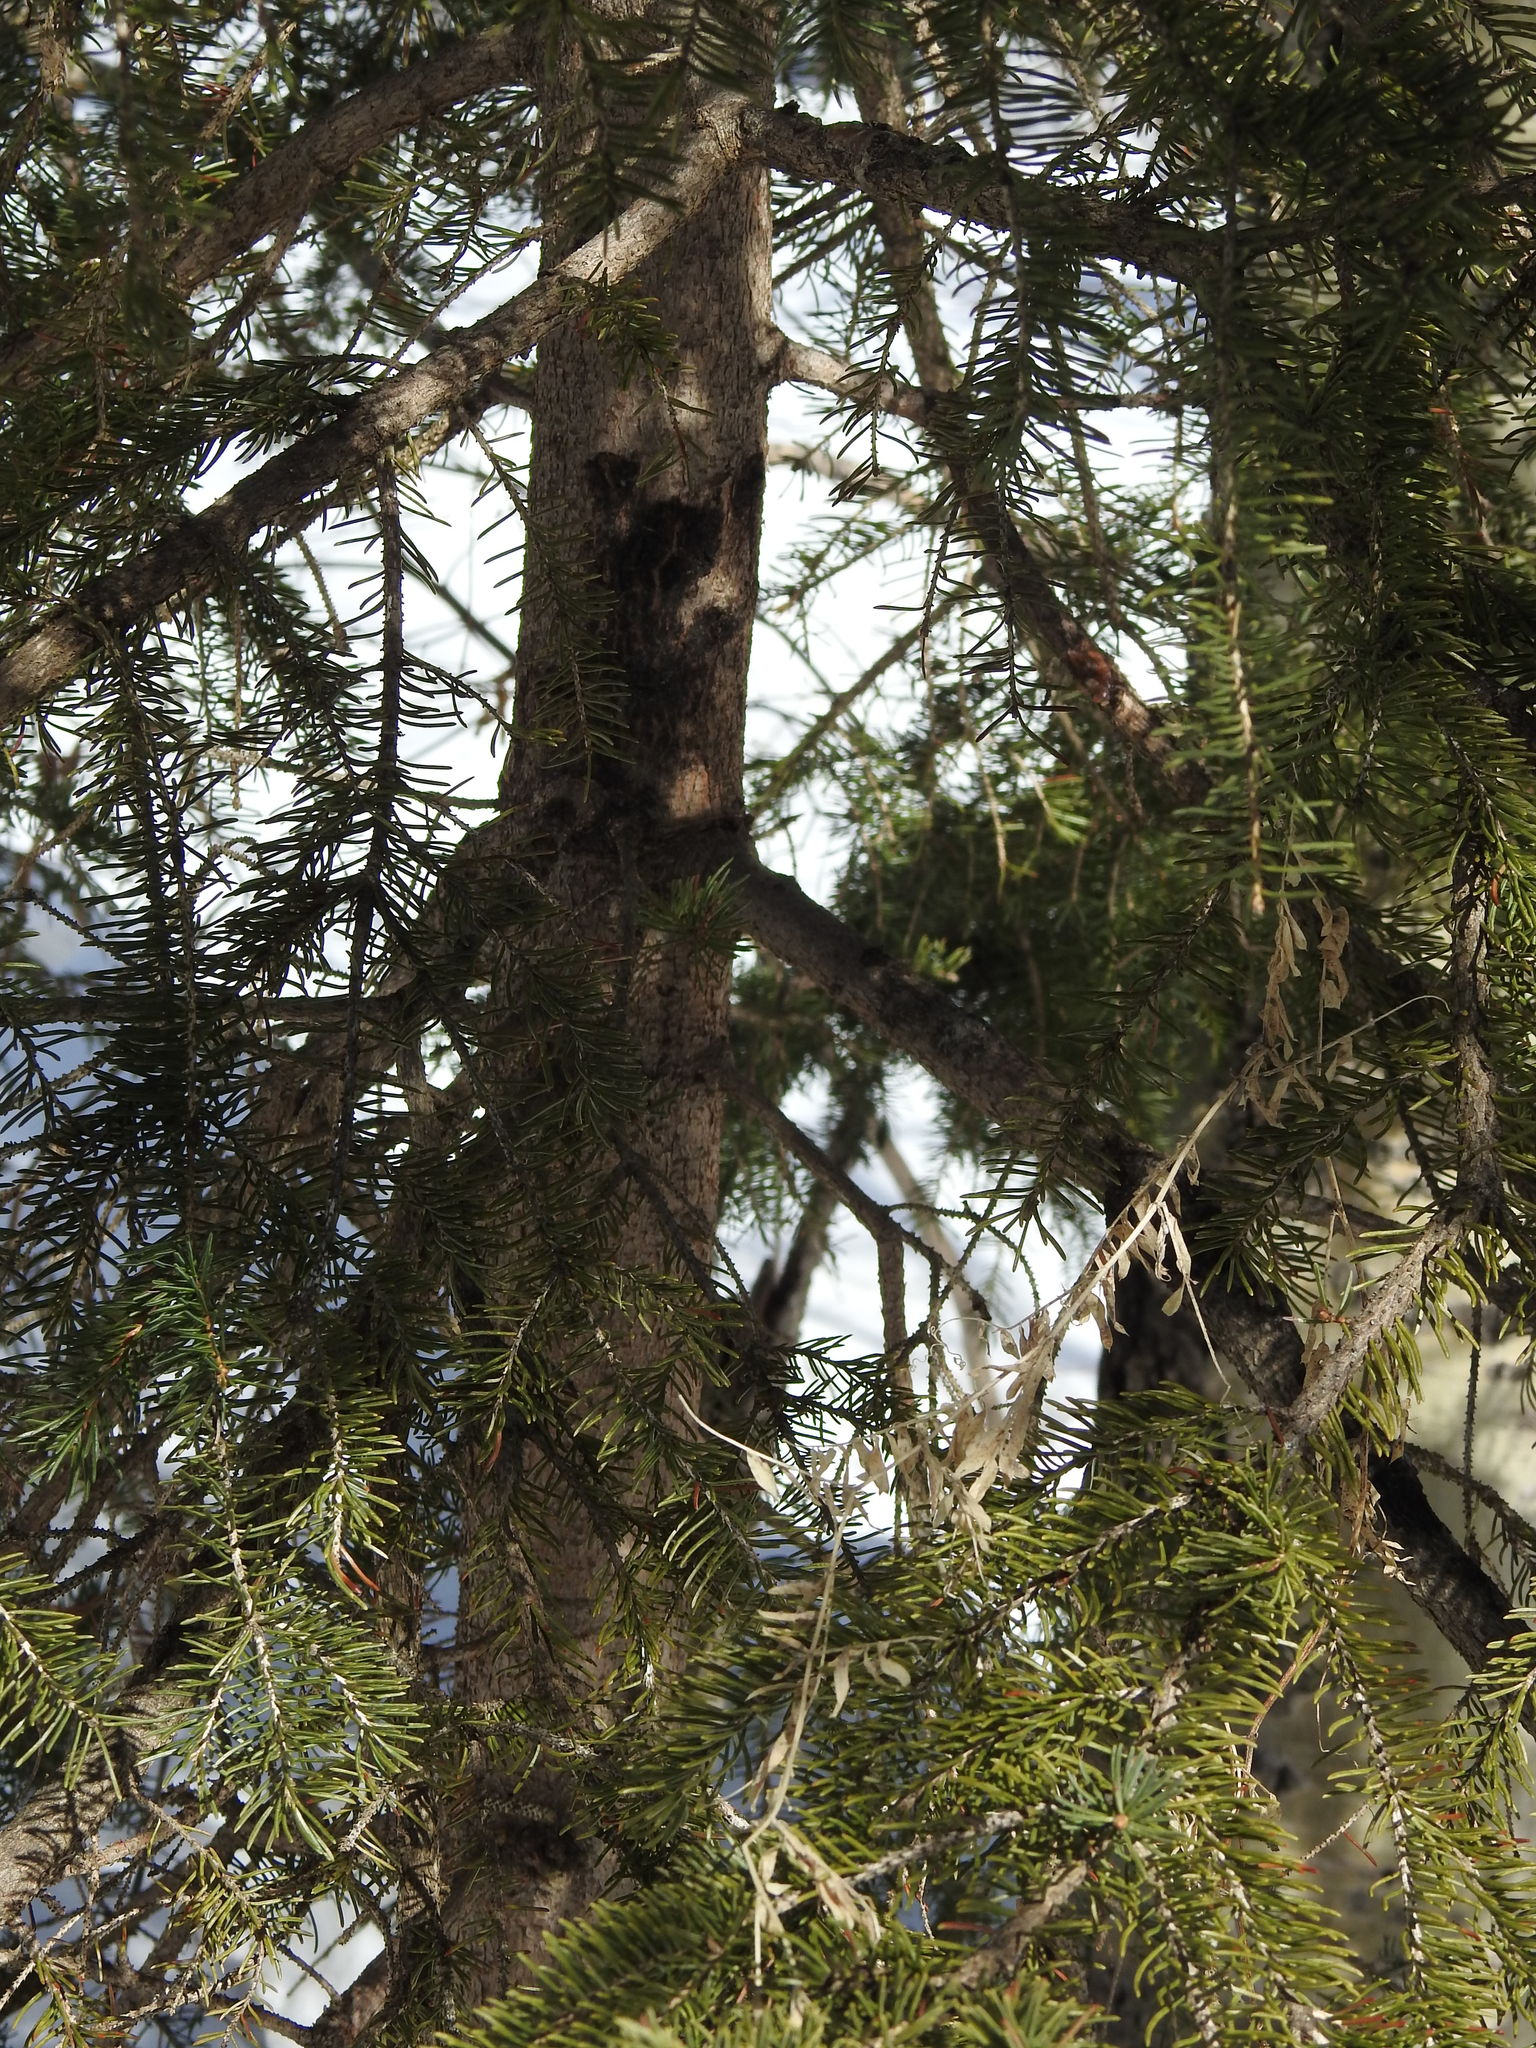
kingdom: Plantae
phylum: Tracheophyta
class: Pinopsida
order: Pinales
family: Pinaceae
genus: Picea
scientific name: Picea glauca
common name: White spruce
